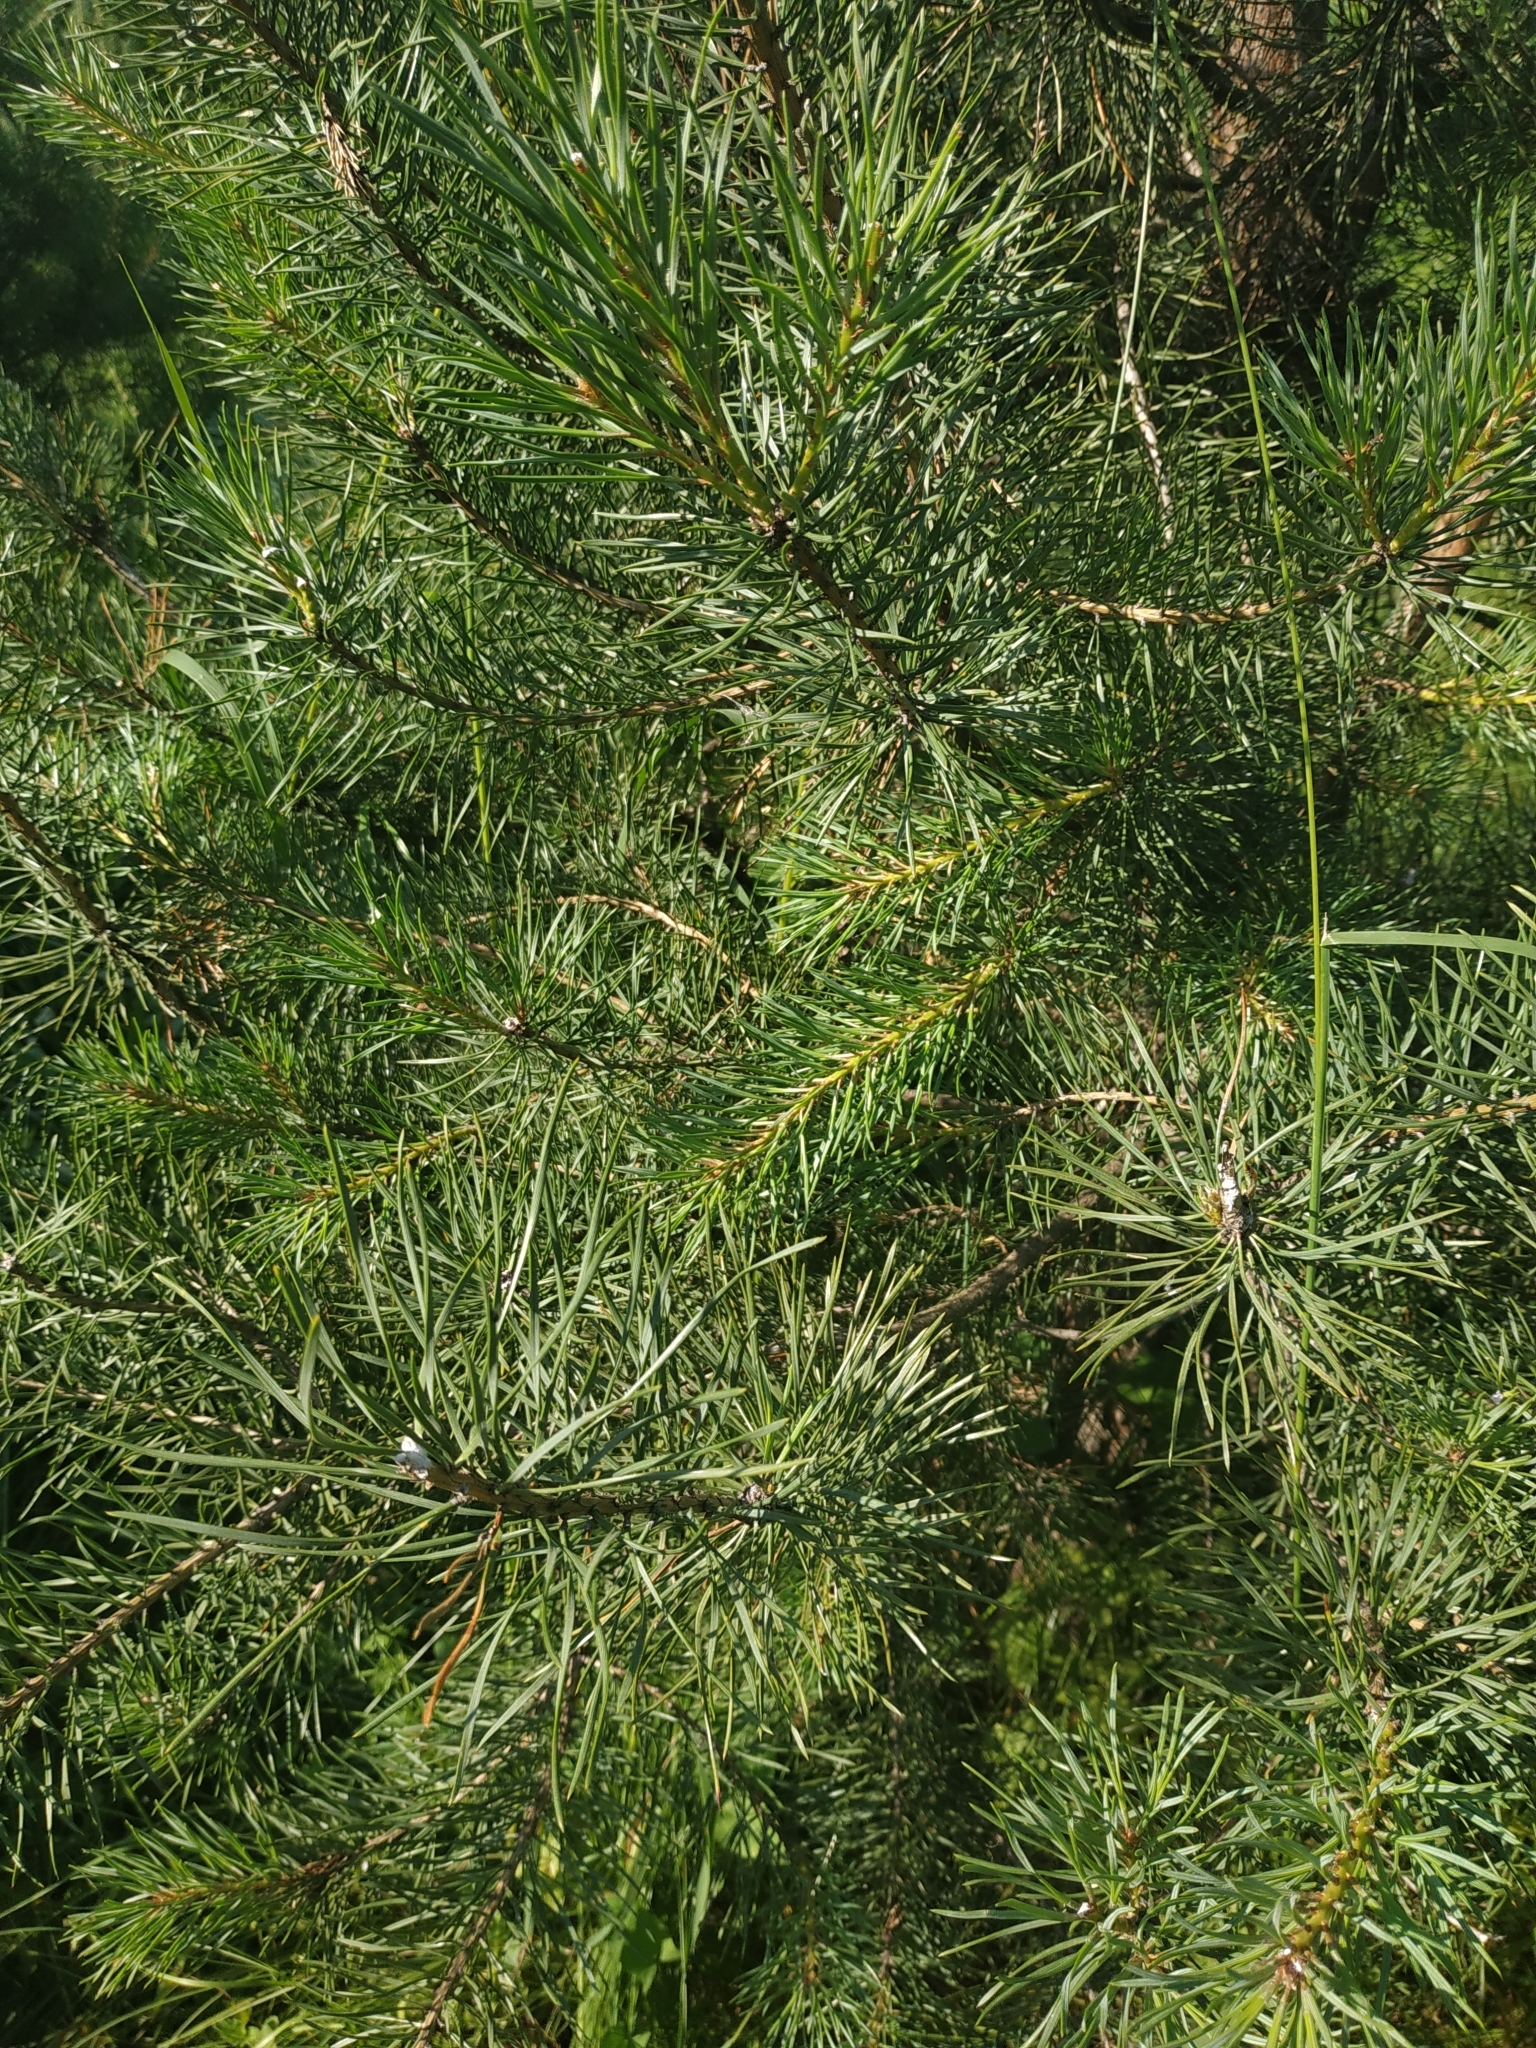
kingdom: Plantae
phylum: Tracheophyta
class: Pinopsida
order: Pinales
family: Pinaceae
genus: Pinus
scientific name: Pinus sylvestris
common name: Scots pine
